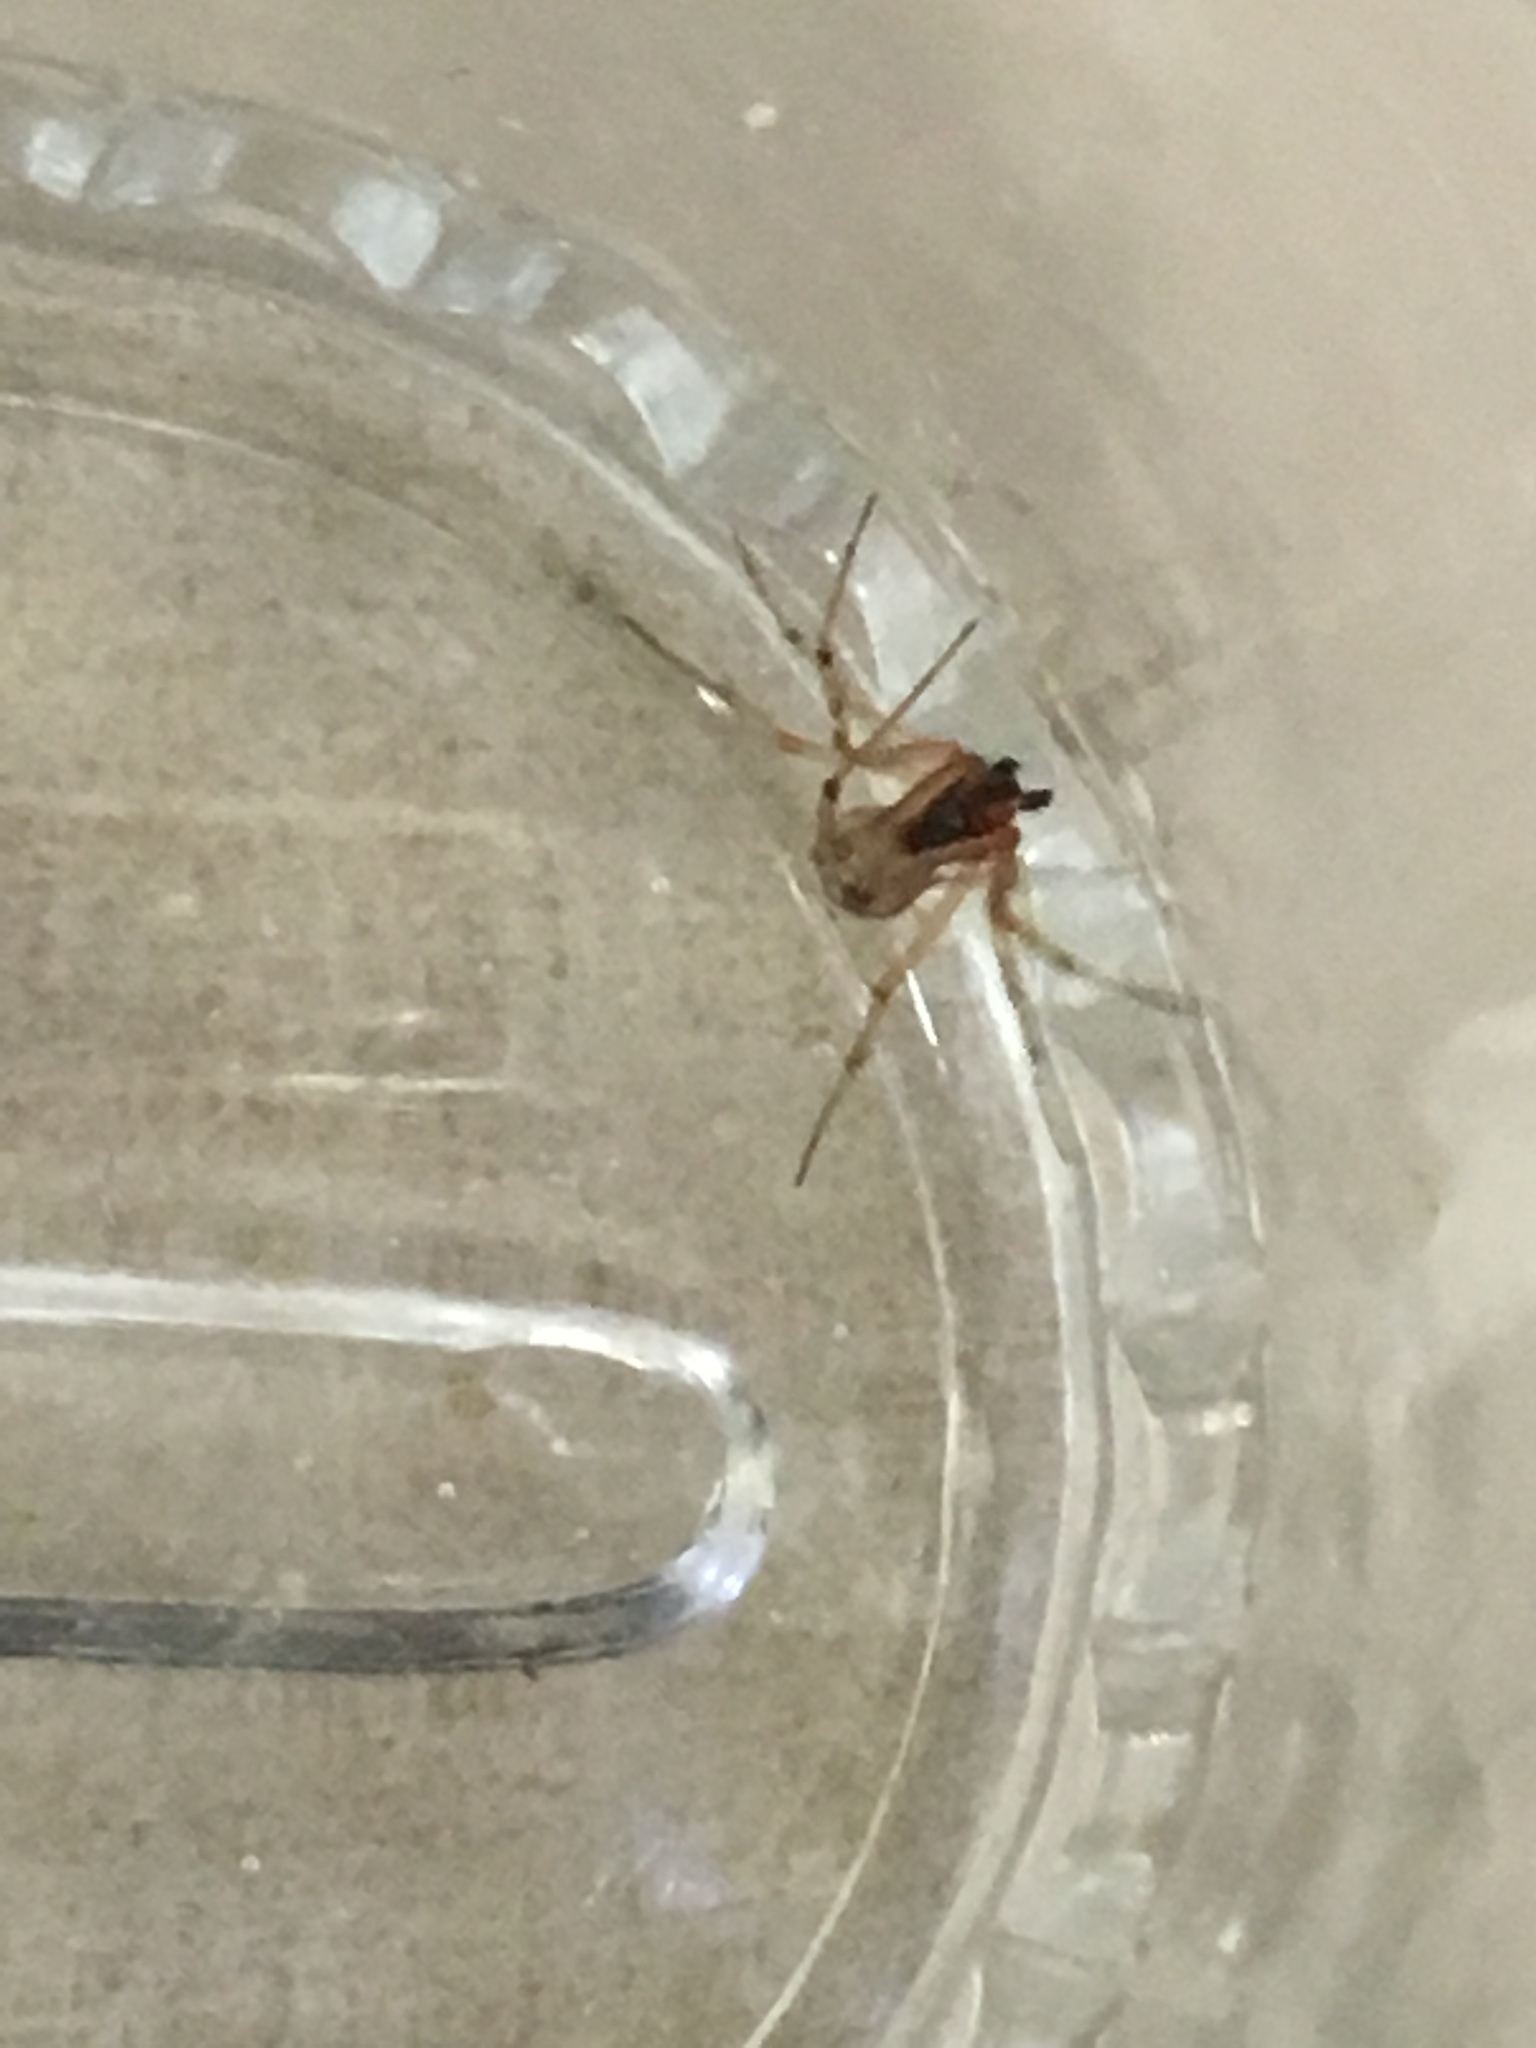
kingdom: Animalia
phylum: Arthropoda
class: Arachnida
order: Araneae
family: Theridiidae
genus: Steatoda
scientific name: Steatoda triangulosa
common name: Triangulate bud spider
